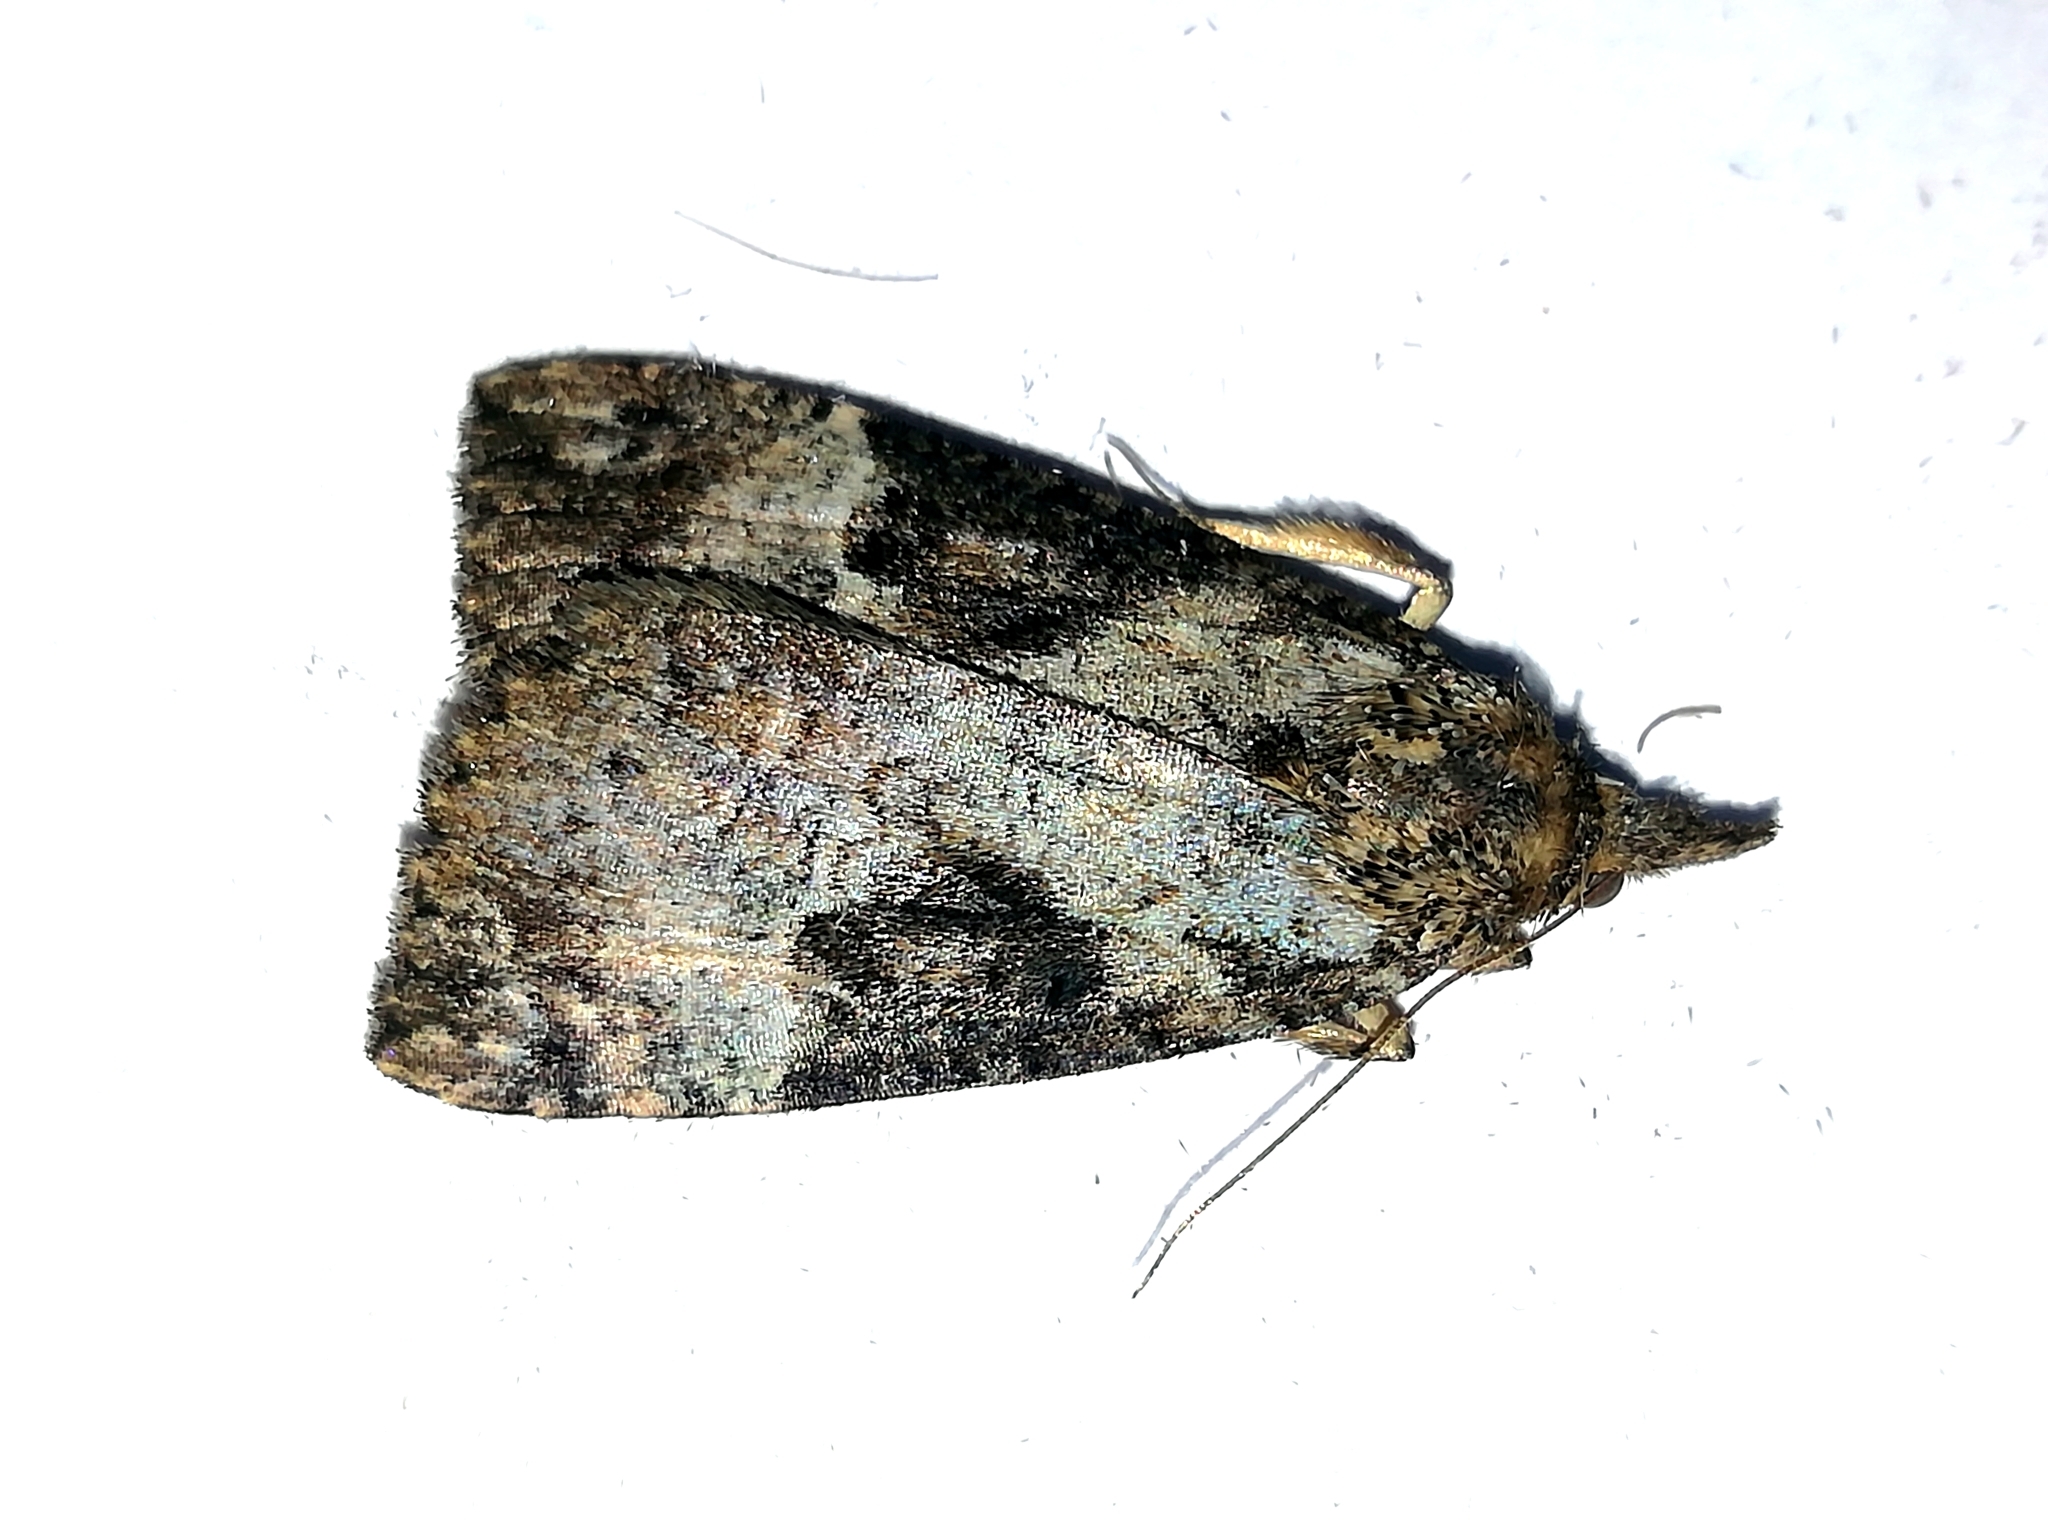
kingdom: Animalia
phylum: Arthropoda
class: Insecta
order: Lepidoptera
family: Erebidae
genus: Hypena
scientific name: Hypena rostralis
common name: Buttoned snout
